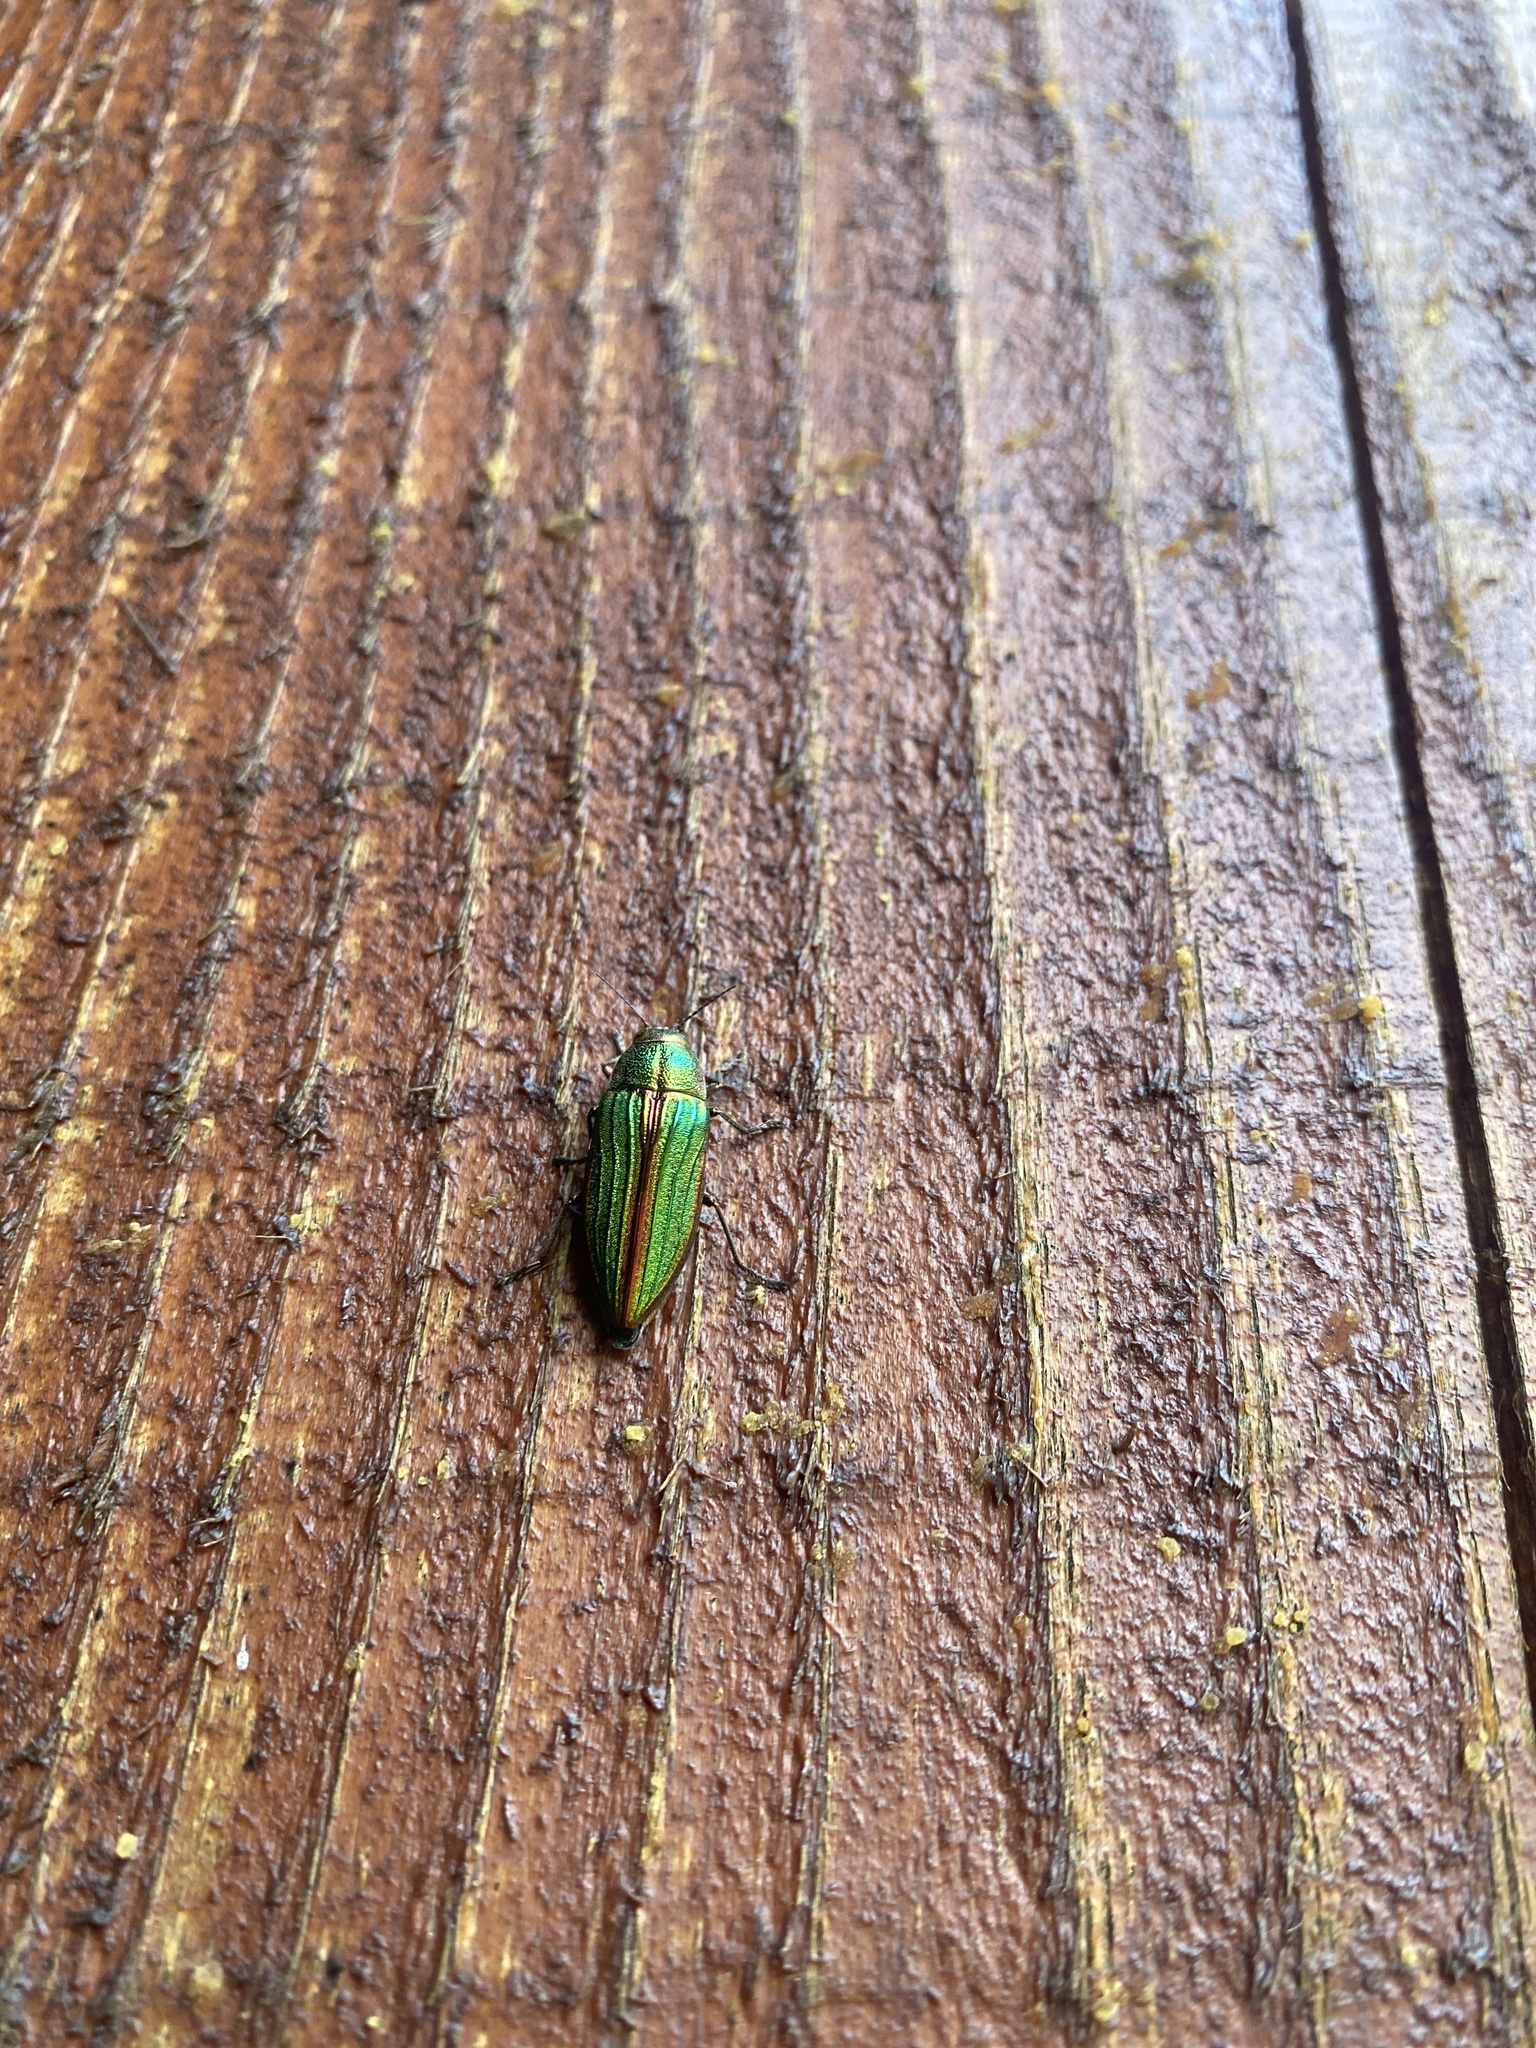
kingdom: Animalia
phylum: Arthropoda
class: Insecta
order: Coleoptera
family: Buprestidae
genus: Buprestis
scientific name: Buprestis aurulenta
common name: Golden buprestid
